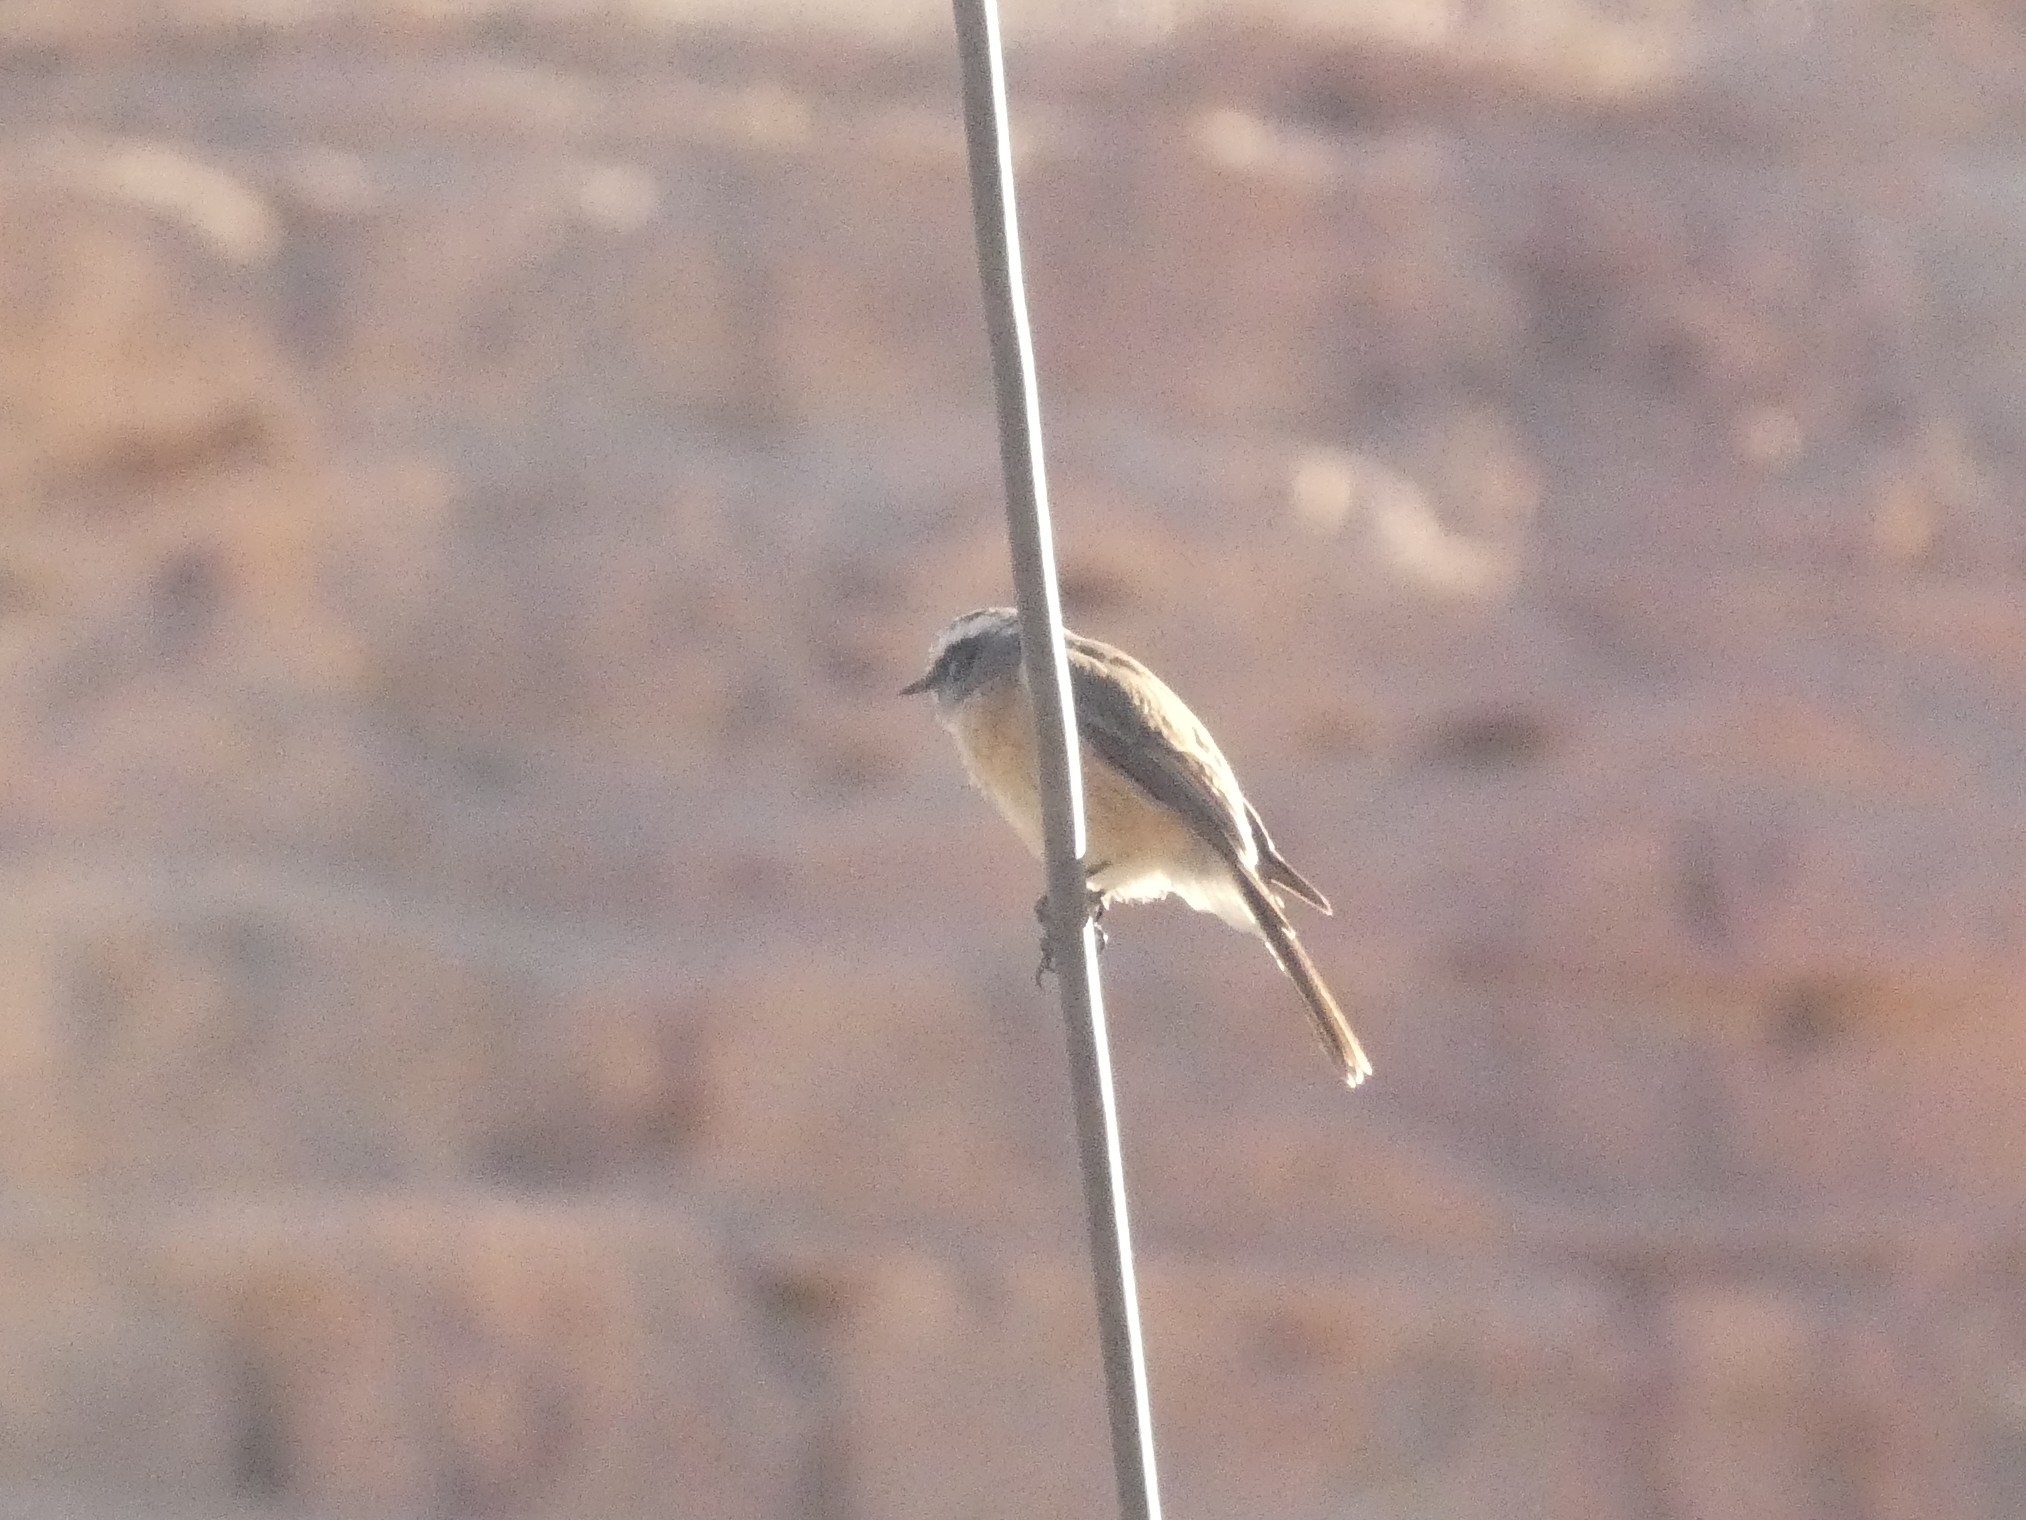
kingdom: Animalia
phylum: Chordata
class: Aves
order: Passeriformes
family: Tyrannidae
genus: Ochthoeca
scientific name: Ochthoeca oenanthoides
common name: D'orbigny's chat-tyrant
